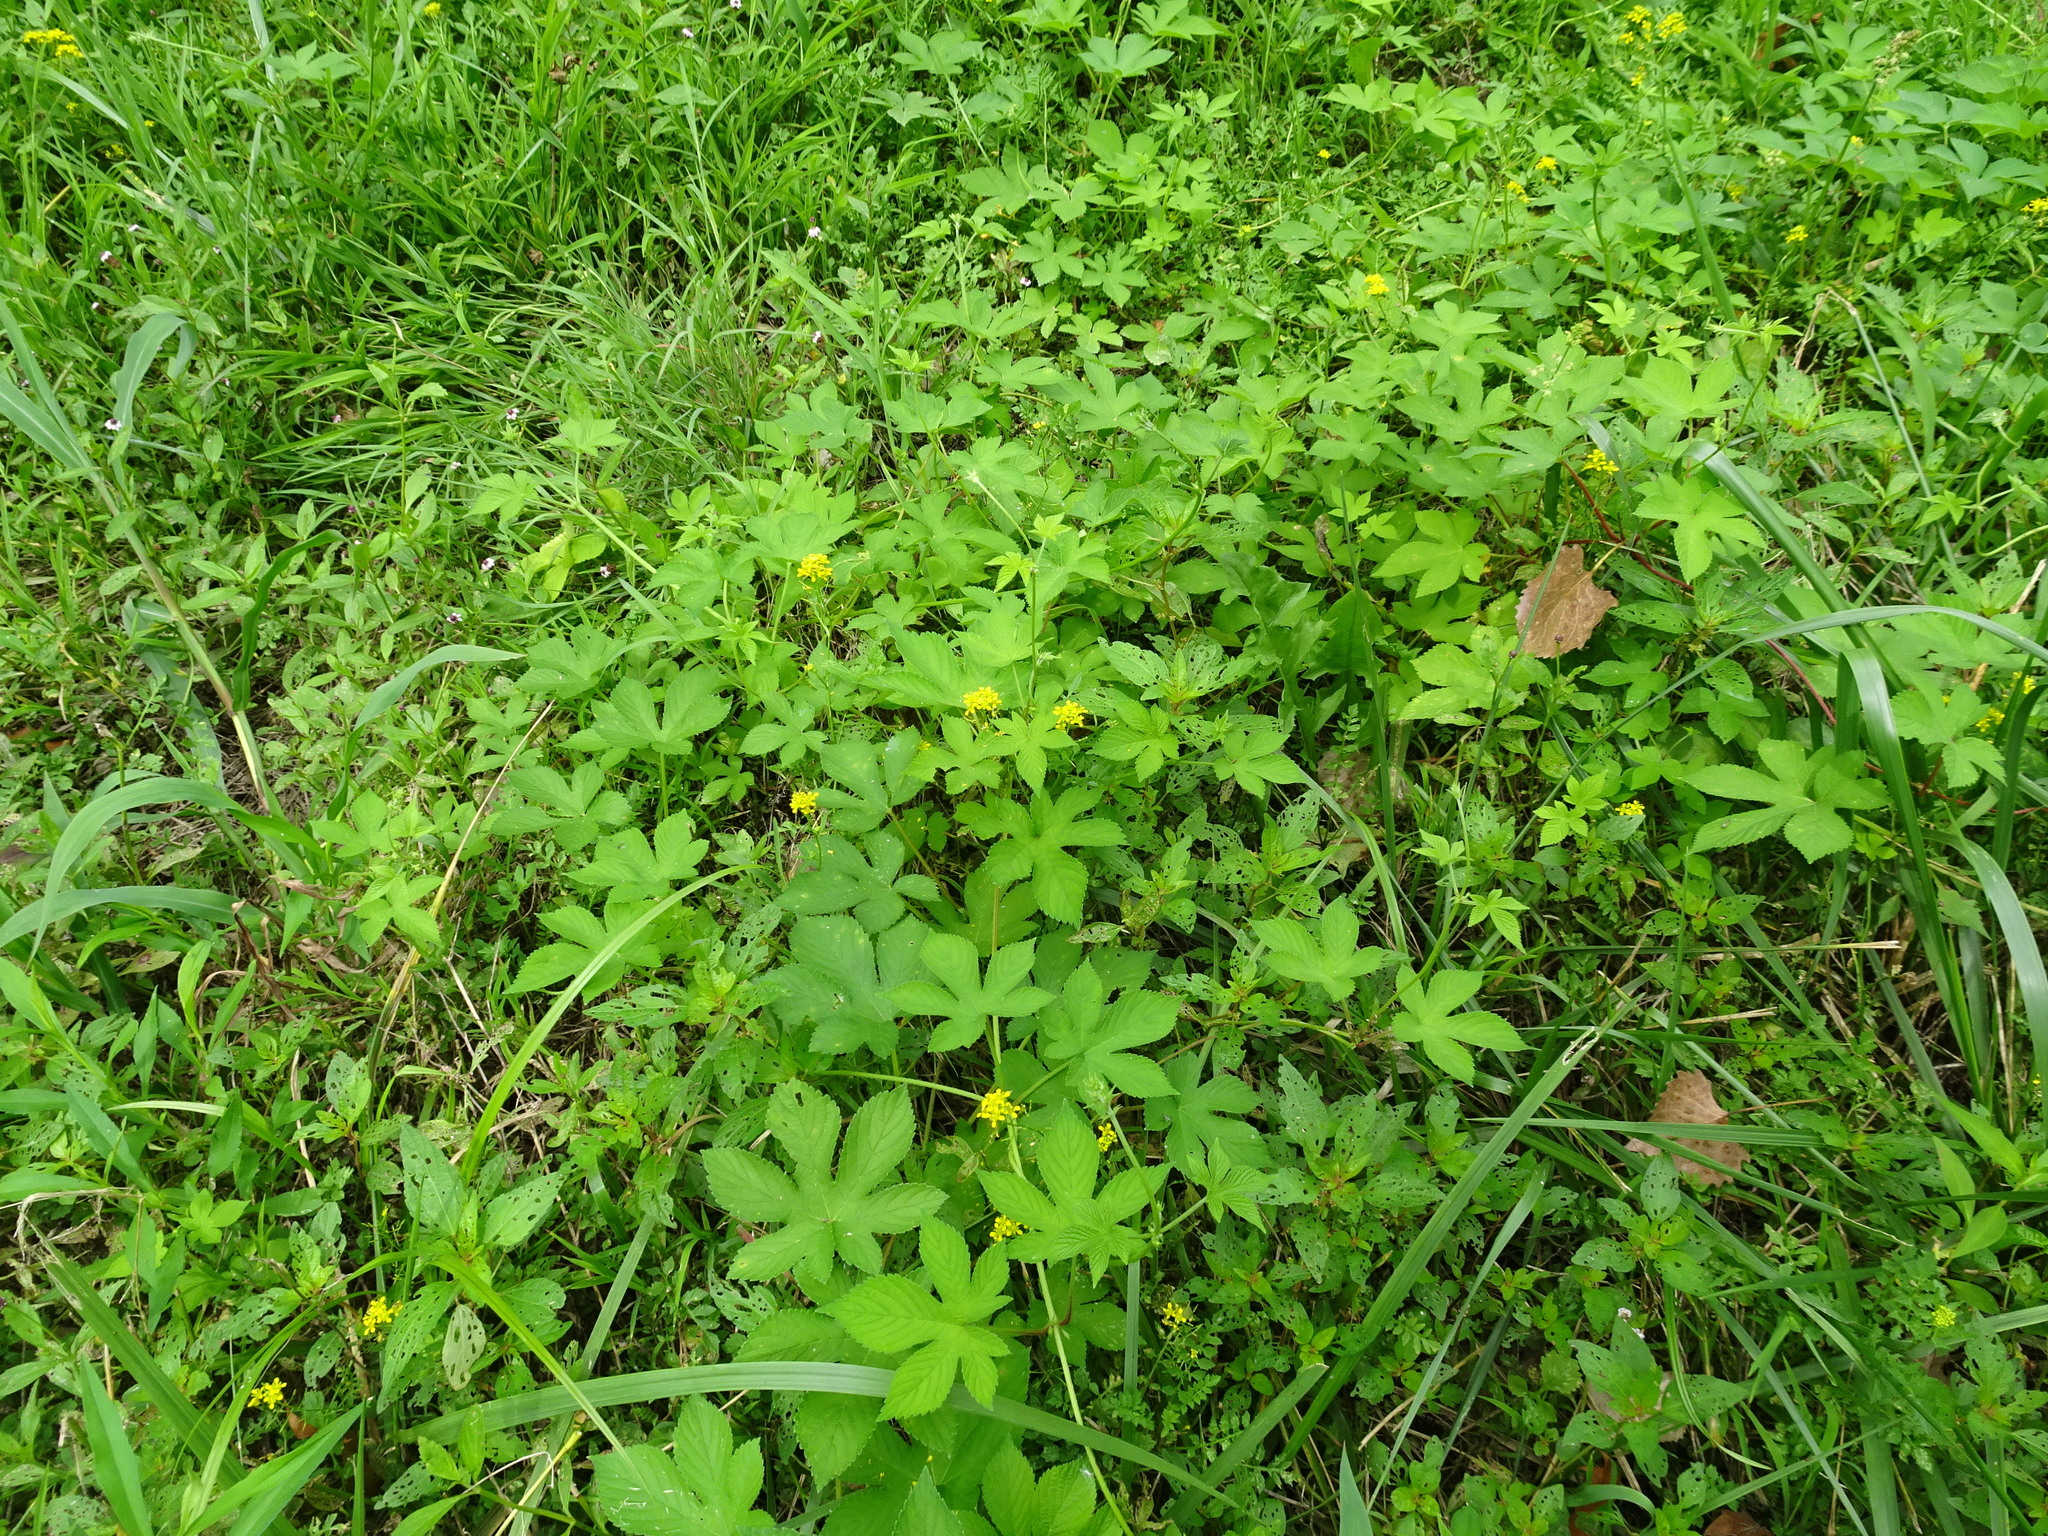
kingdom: Plantae
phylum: Tracheophyta
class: Magnoliopsida
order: Rosales
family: Cannabaceae
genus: Humulus
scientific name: Humulus scandens
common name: Japanese hop
